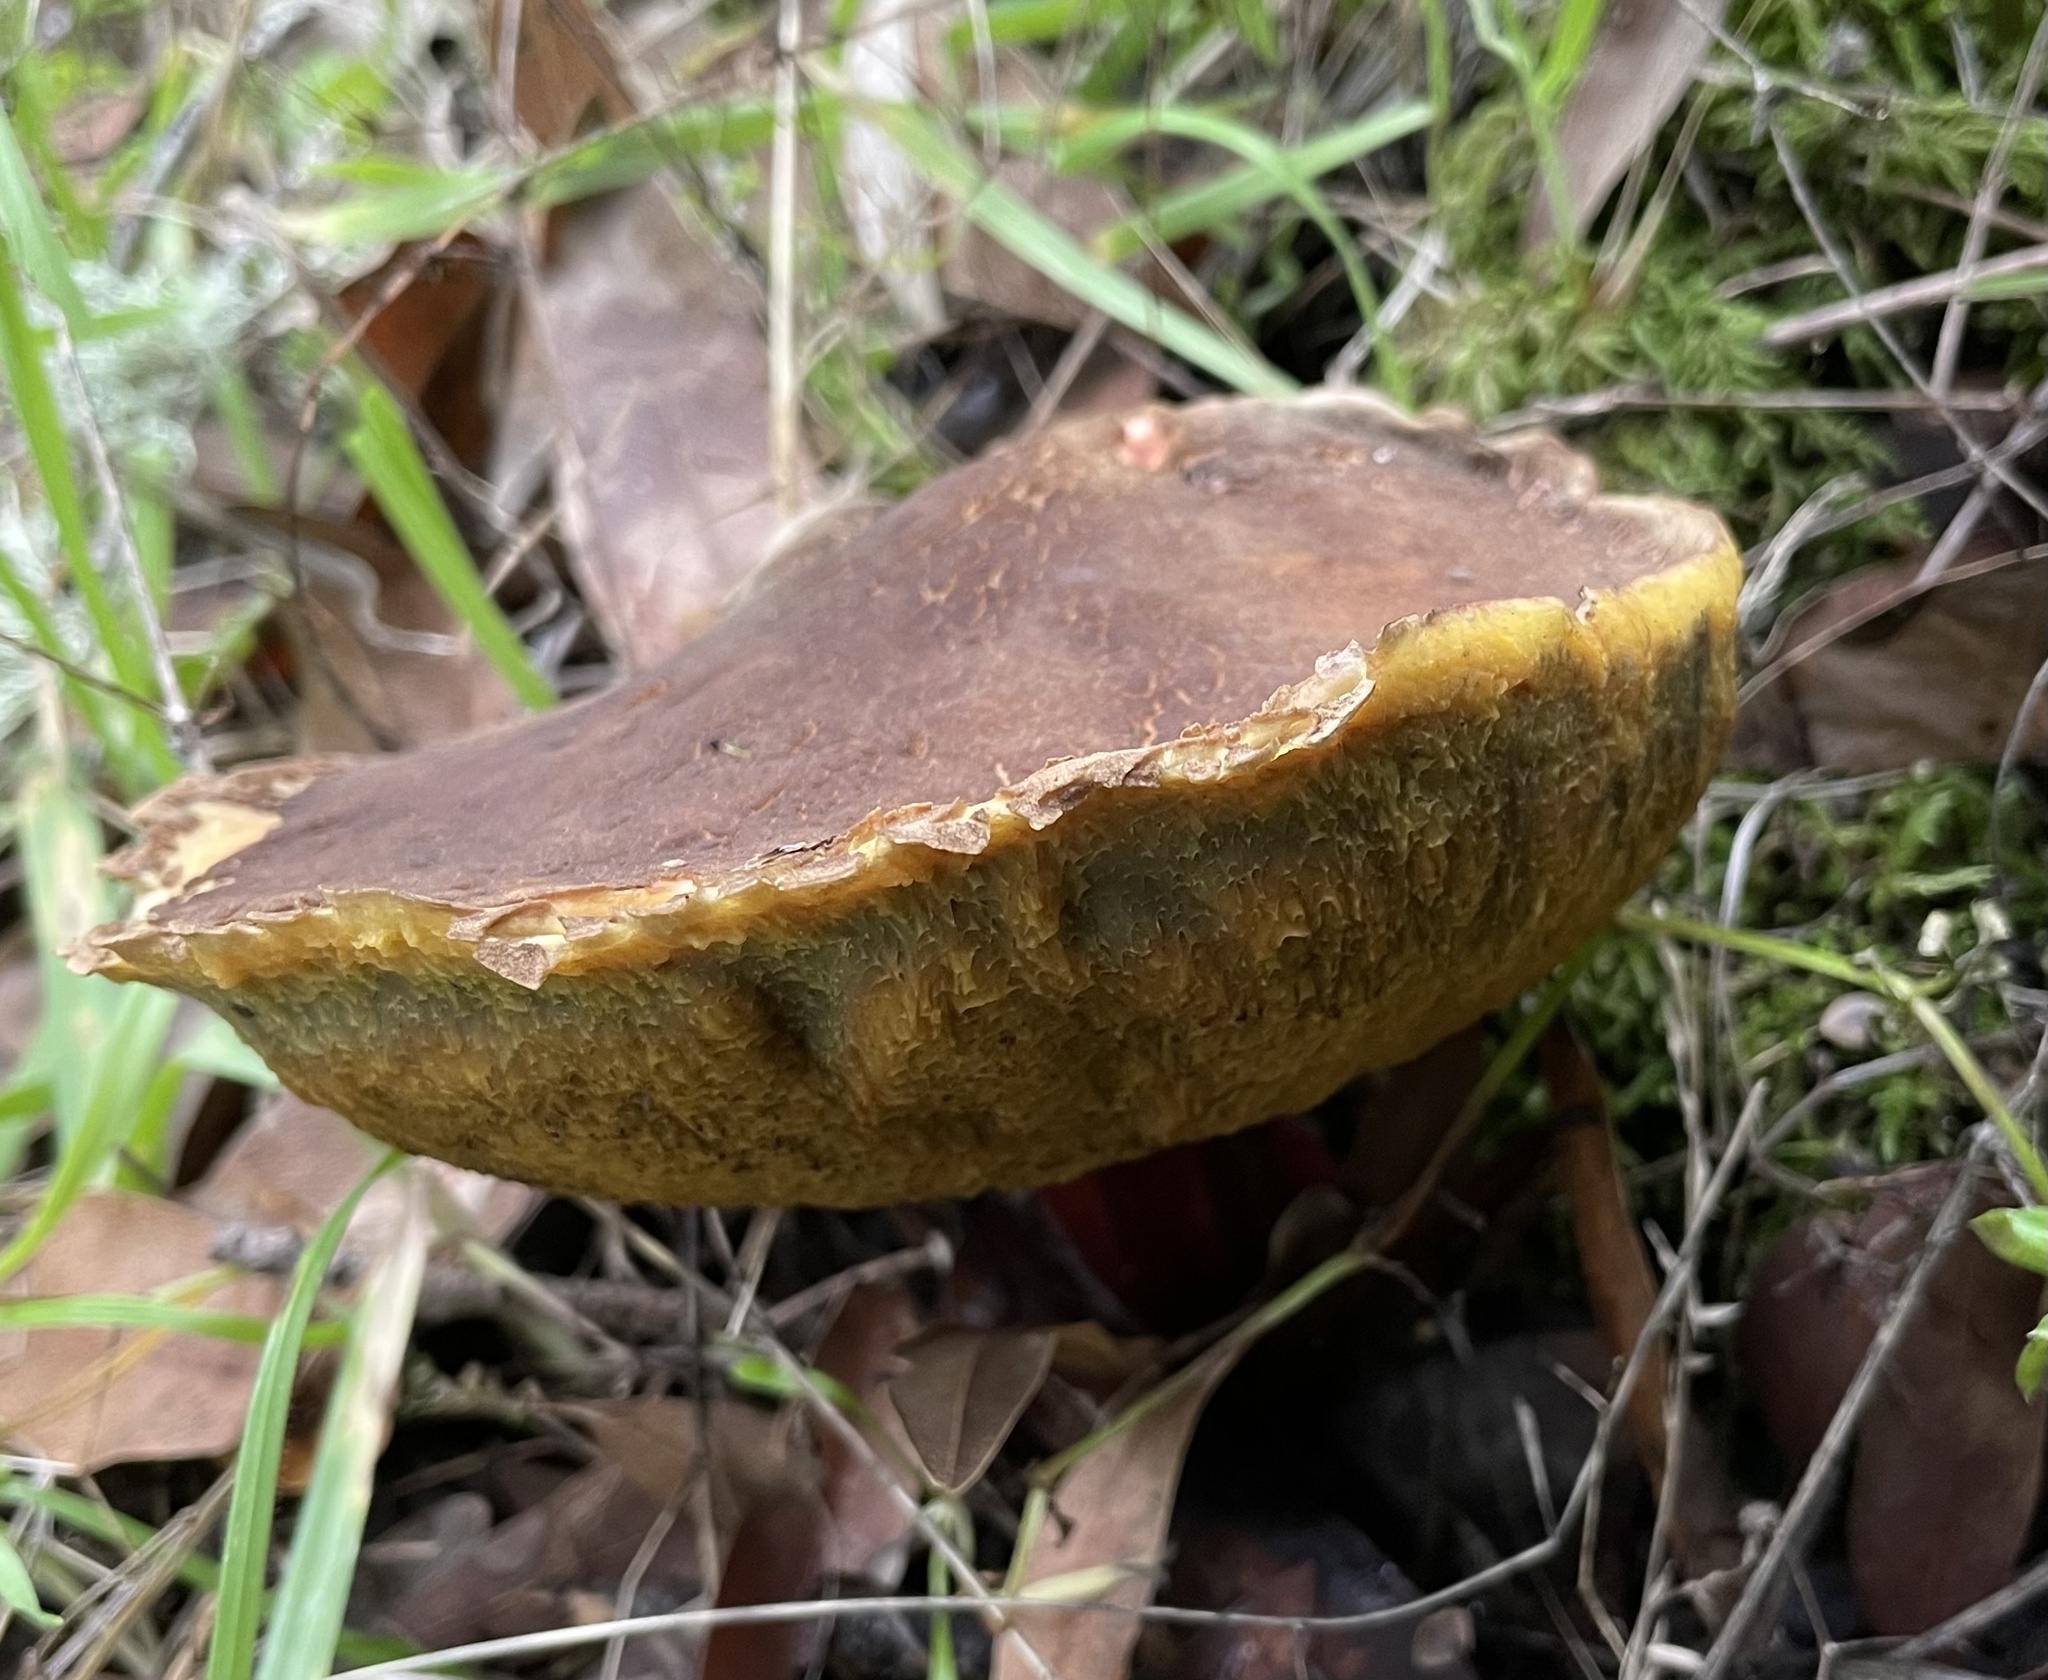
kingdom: Fungi
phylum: Basidiomycota
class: Agaricomycetes
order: Boletales
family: Boletaceae
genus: Xerocomellus
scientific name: Xerocomellus dryophilus
